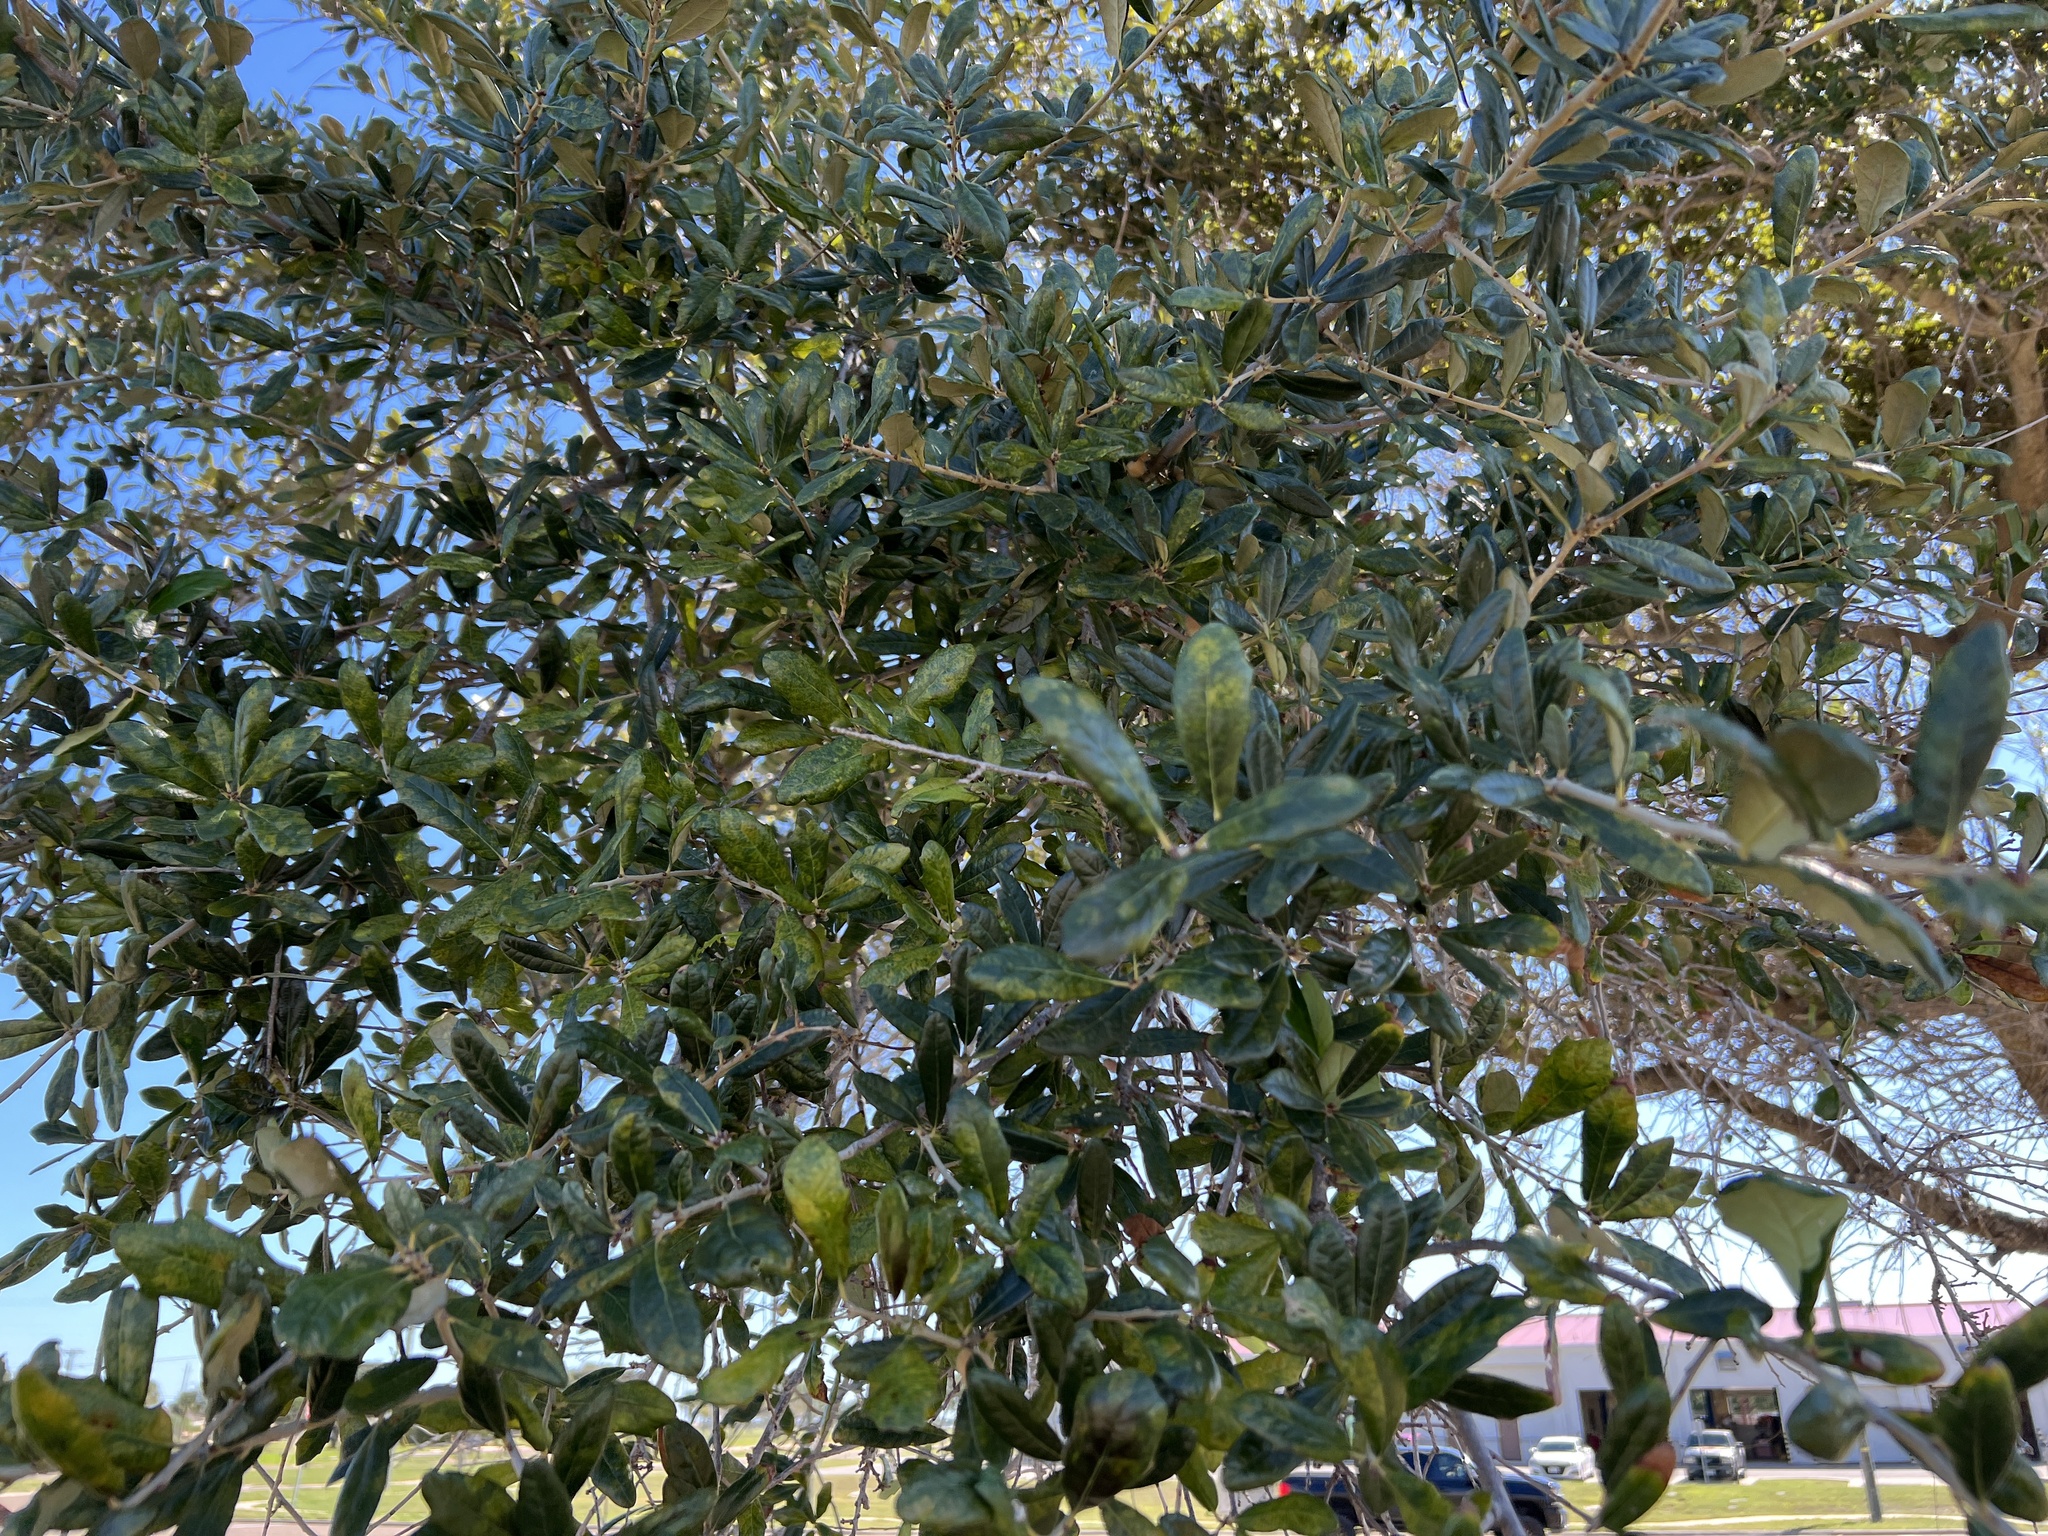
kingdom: Plantae
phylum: Tracheophyta
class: Magnoliopsida
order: Fagales
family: Fagaceae
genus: Quercus
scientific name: Quercus virginiana
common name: Southern live oak
